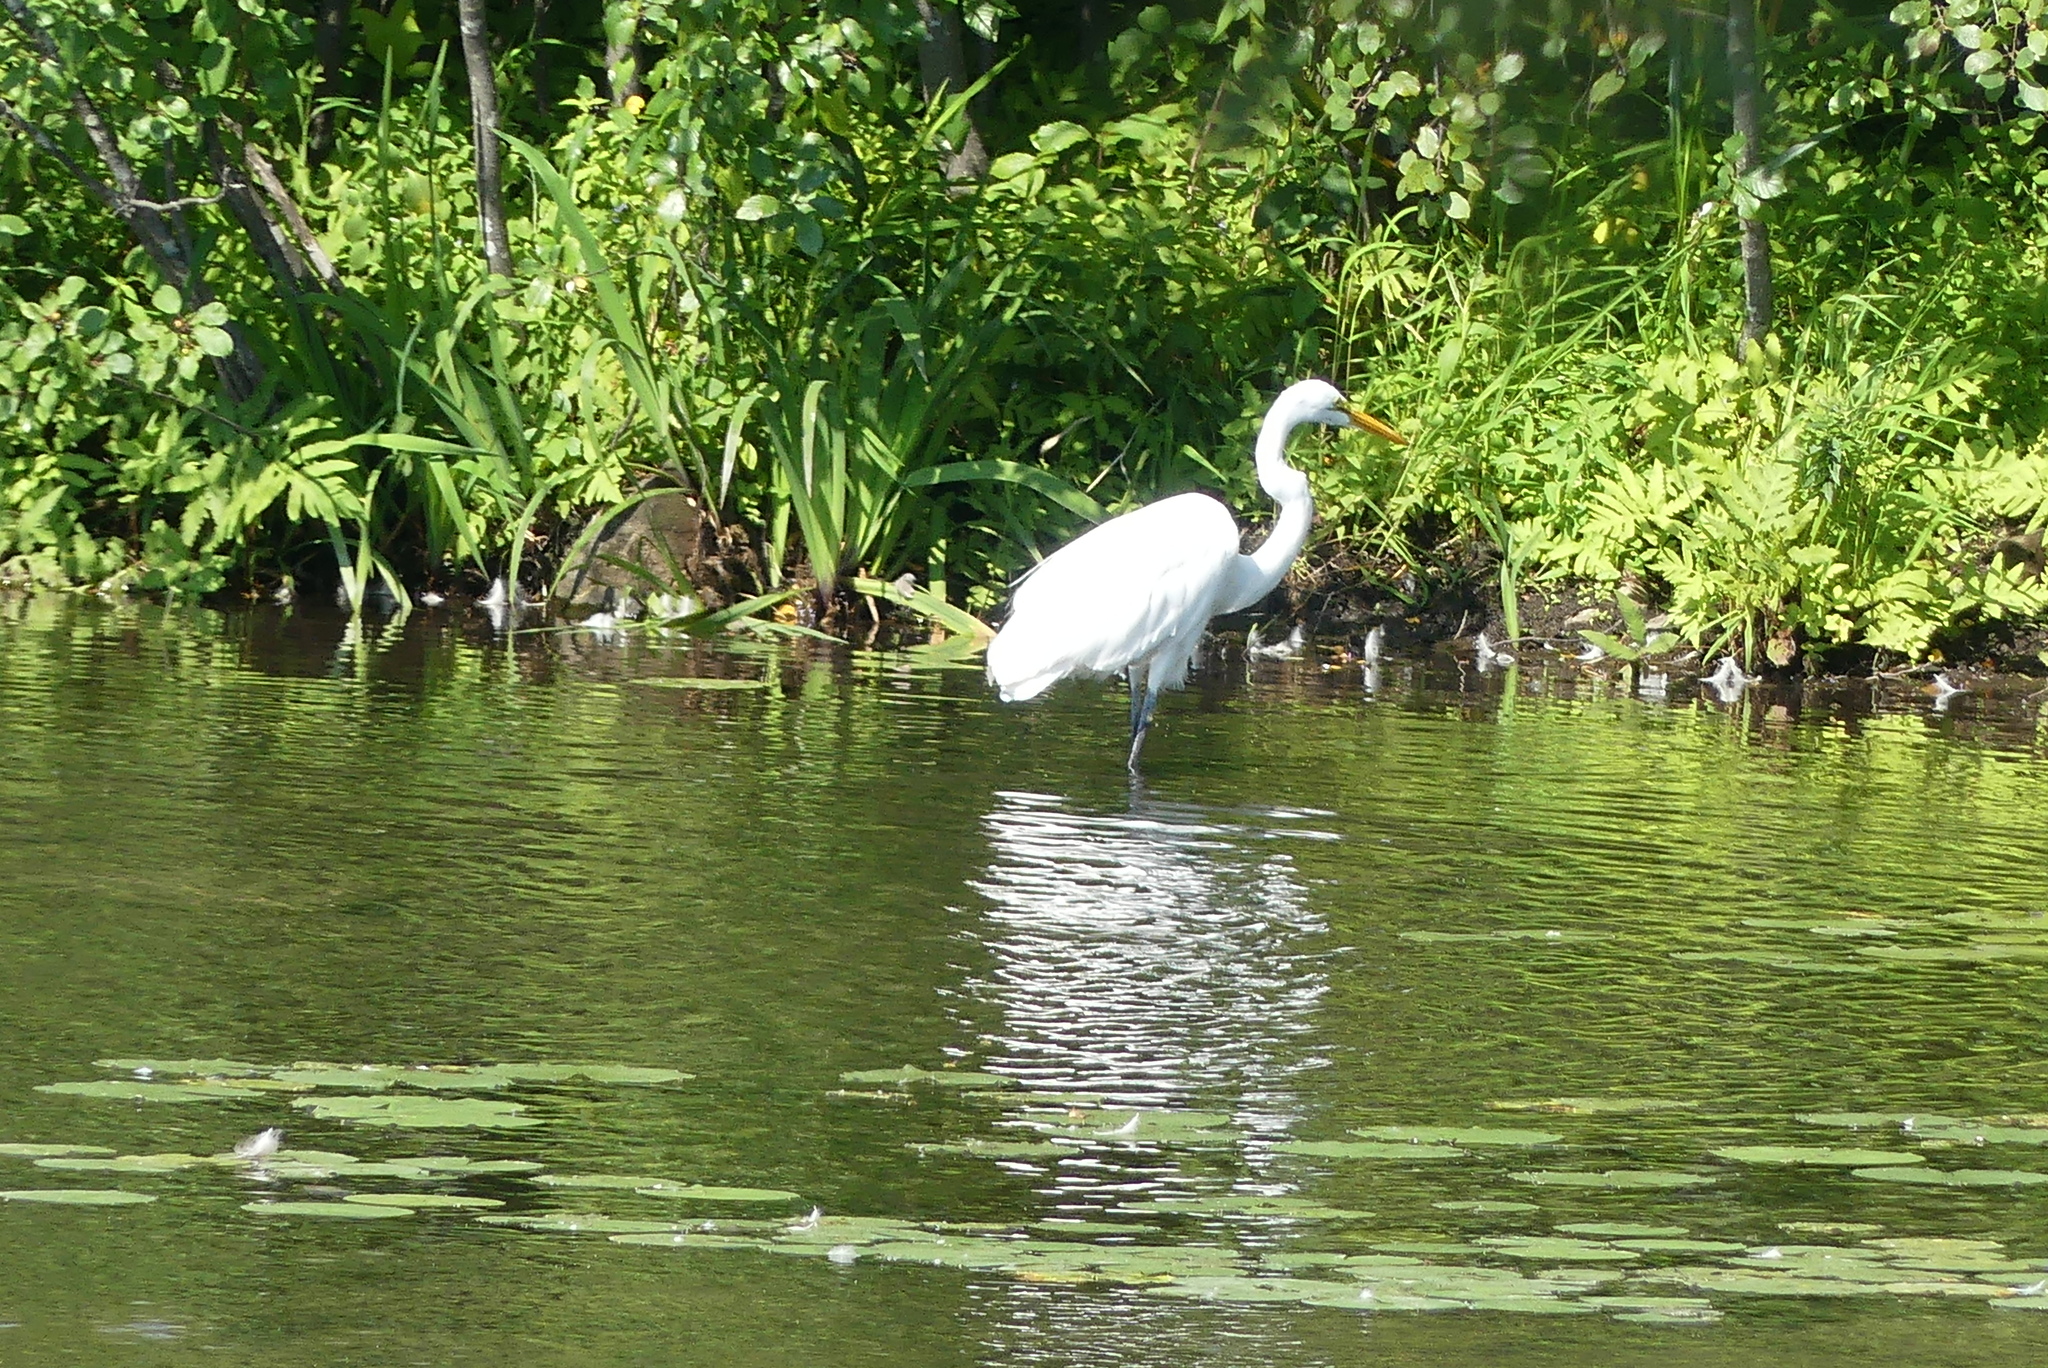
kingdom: Animalia
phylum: Chordata
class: Aves
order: Pelecaniformes
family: Ardeidae
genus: Ardea
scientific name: Ardea alba
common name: Great egret
